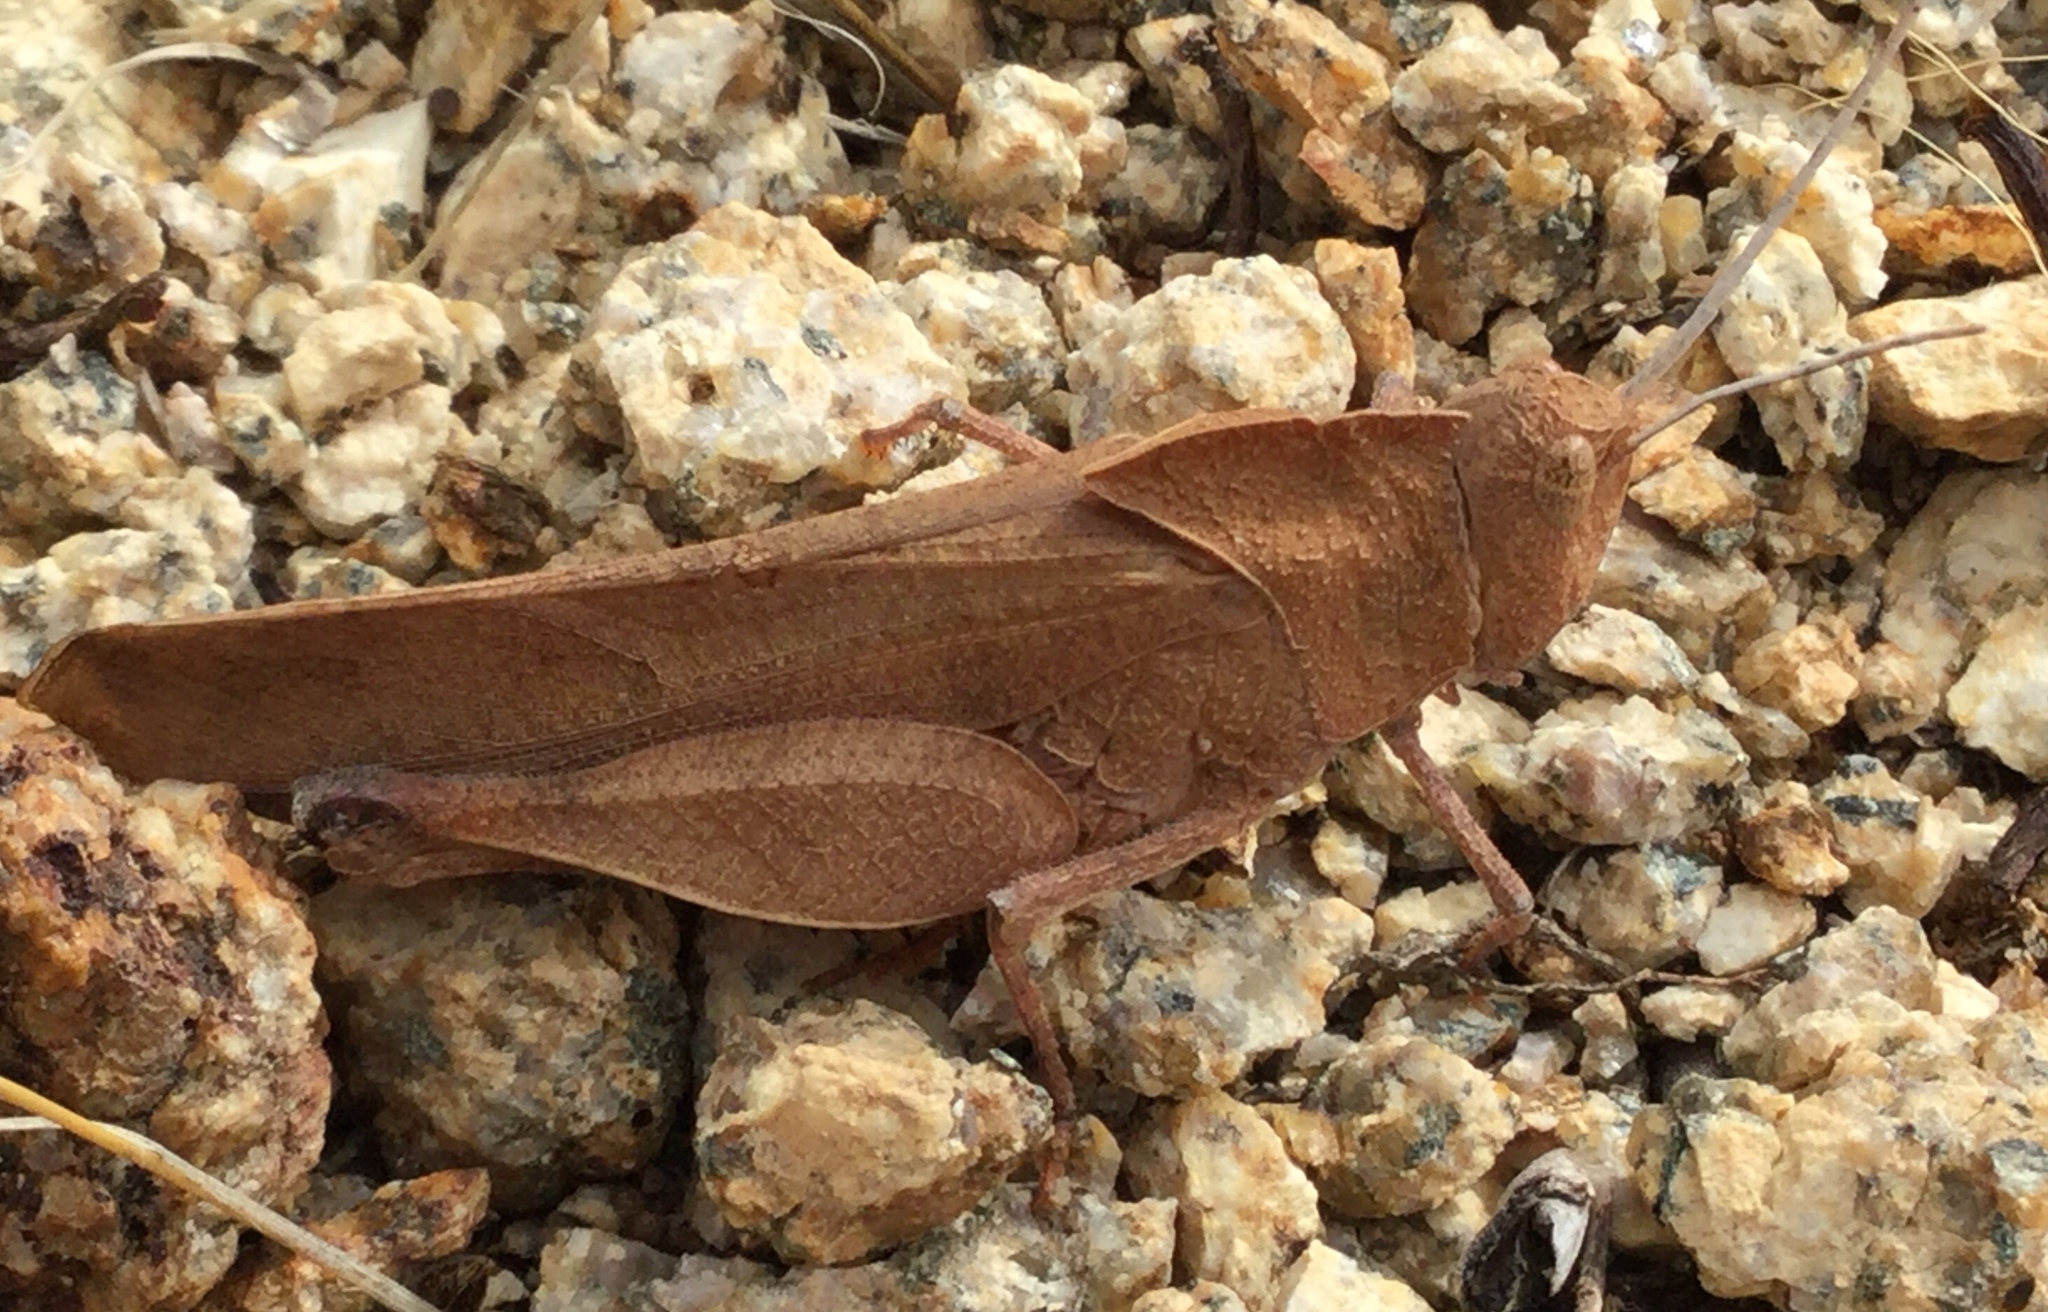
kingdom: Animalia
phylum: Arthropoda
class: Insecta
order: Orthoptera
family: Acrididae
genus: Tomonotus
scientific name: Tomonotus ferruginosus
